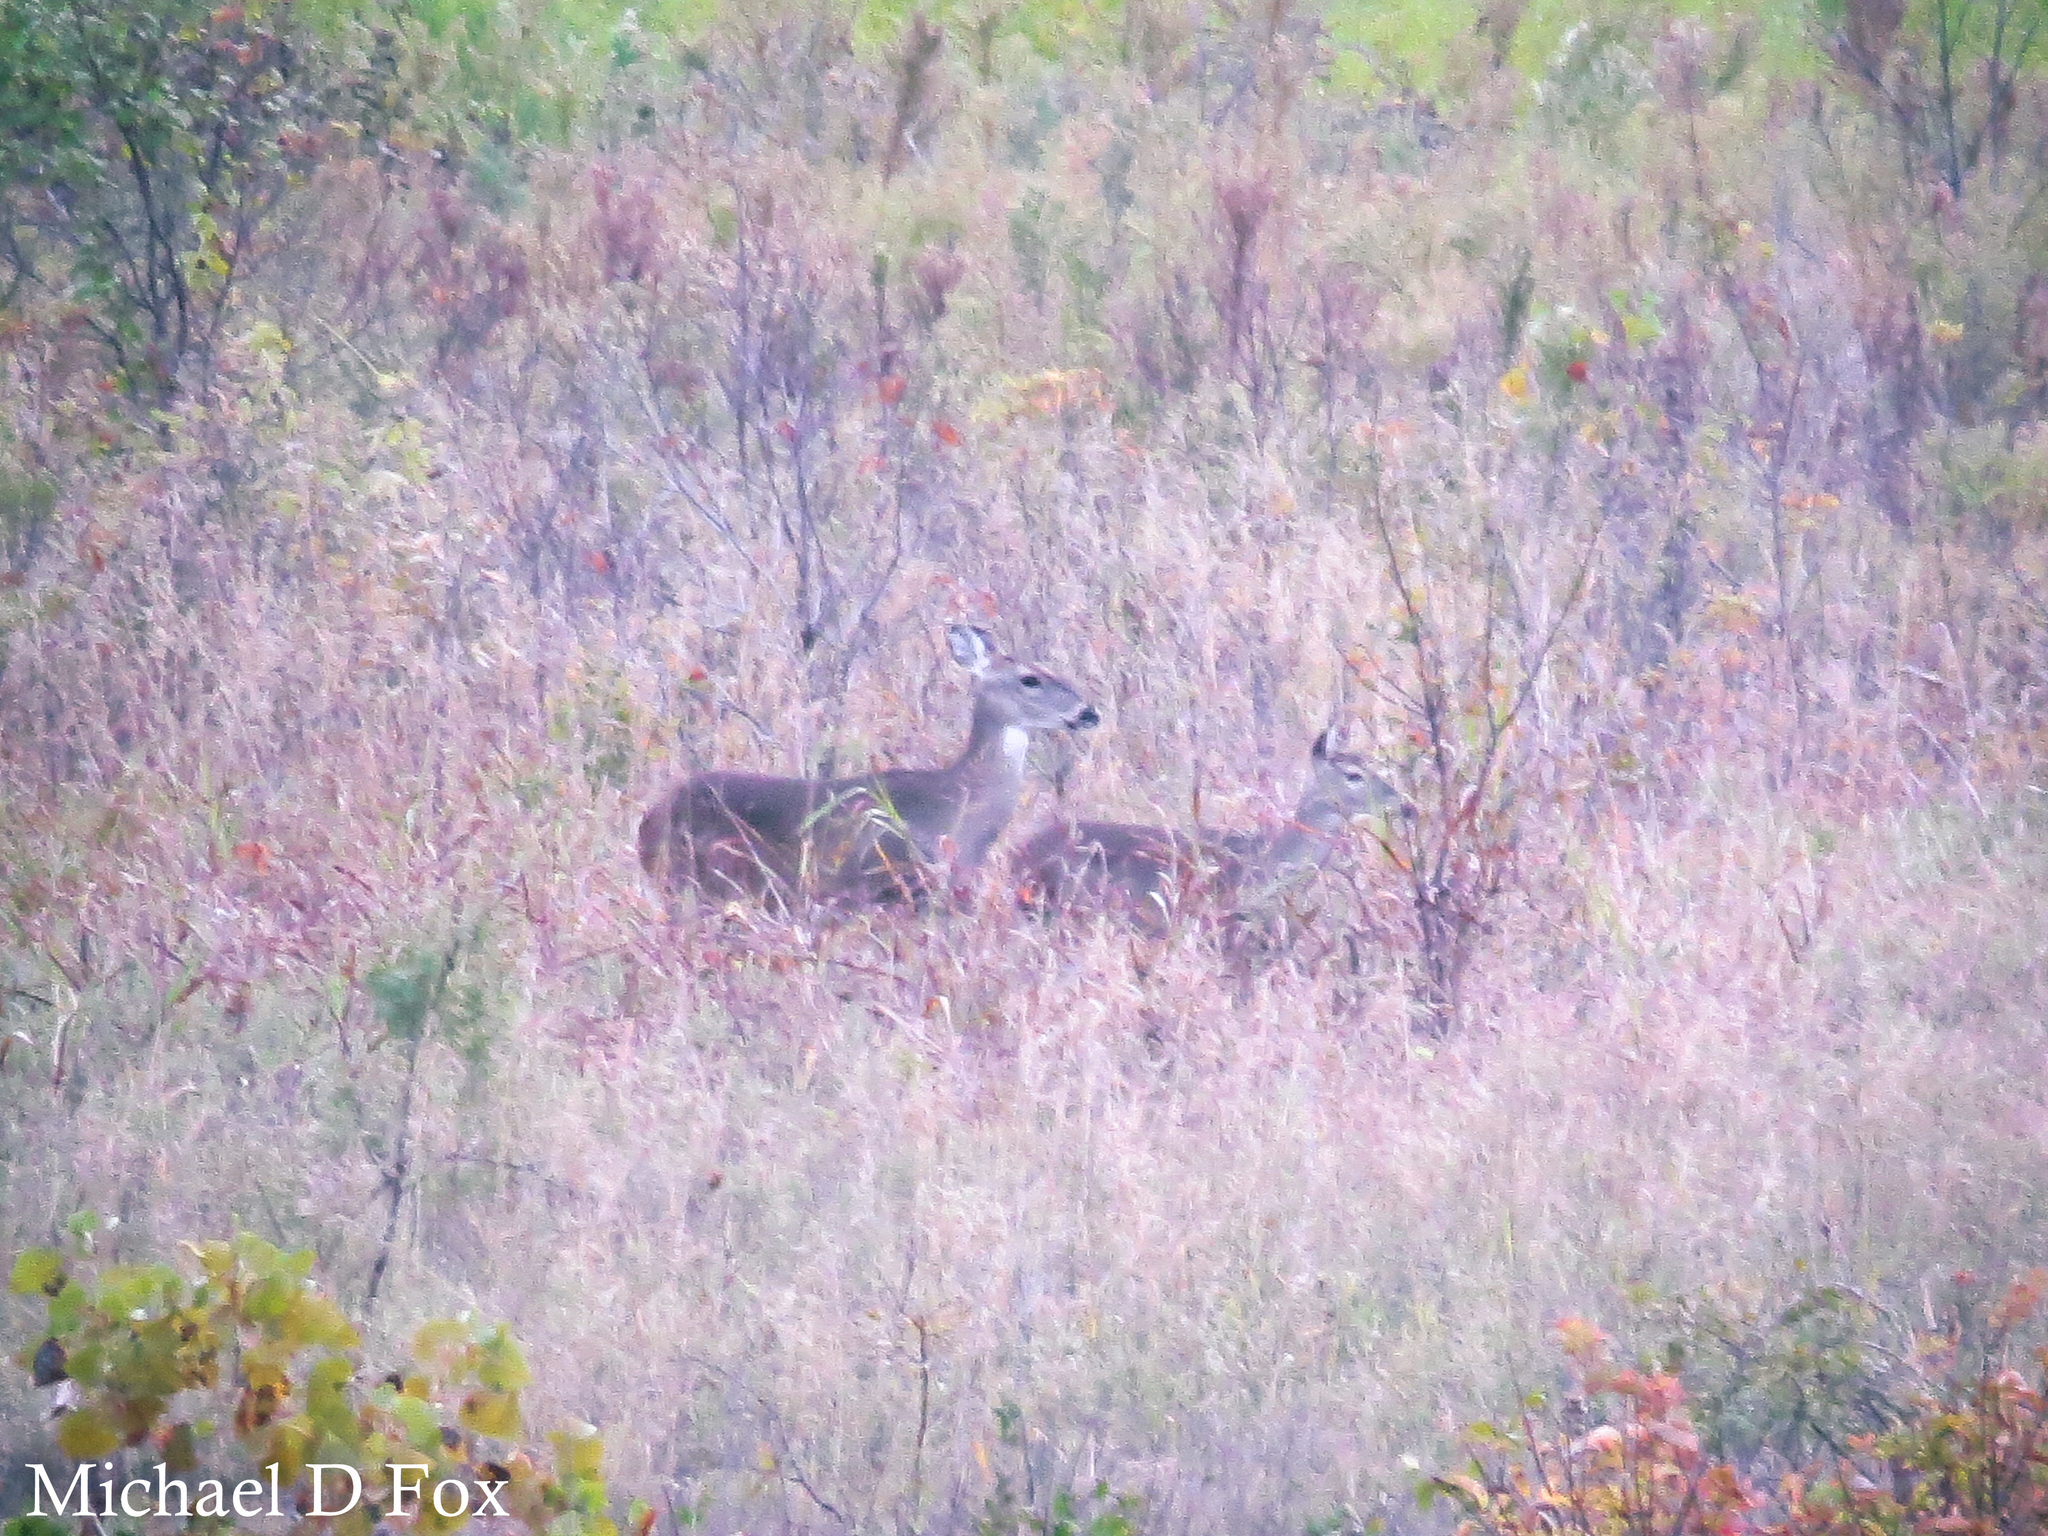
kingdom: Animalia
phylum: Chordata
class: Mammalia
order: Artiodactyla
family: Cervidae
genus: Odocoileus
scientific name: Odocoileus virginianus
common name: White-tailed deer
